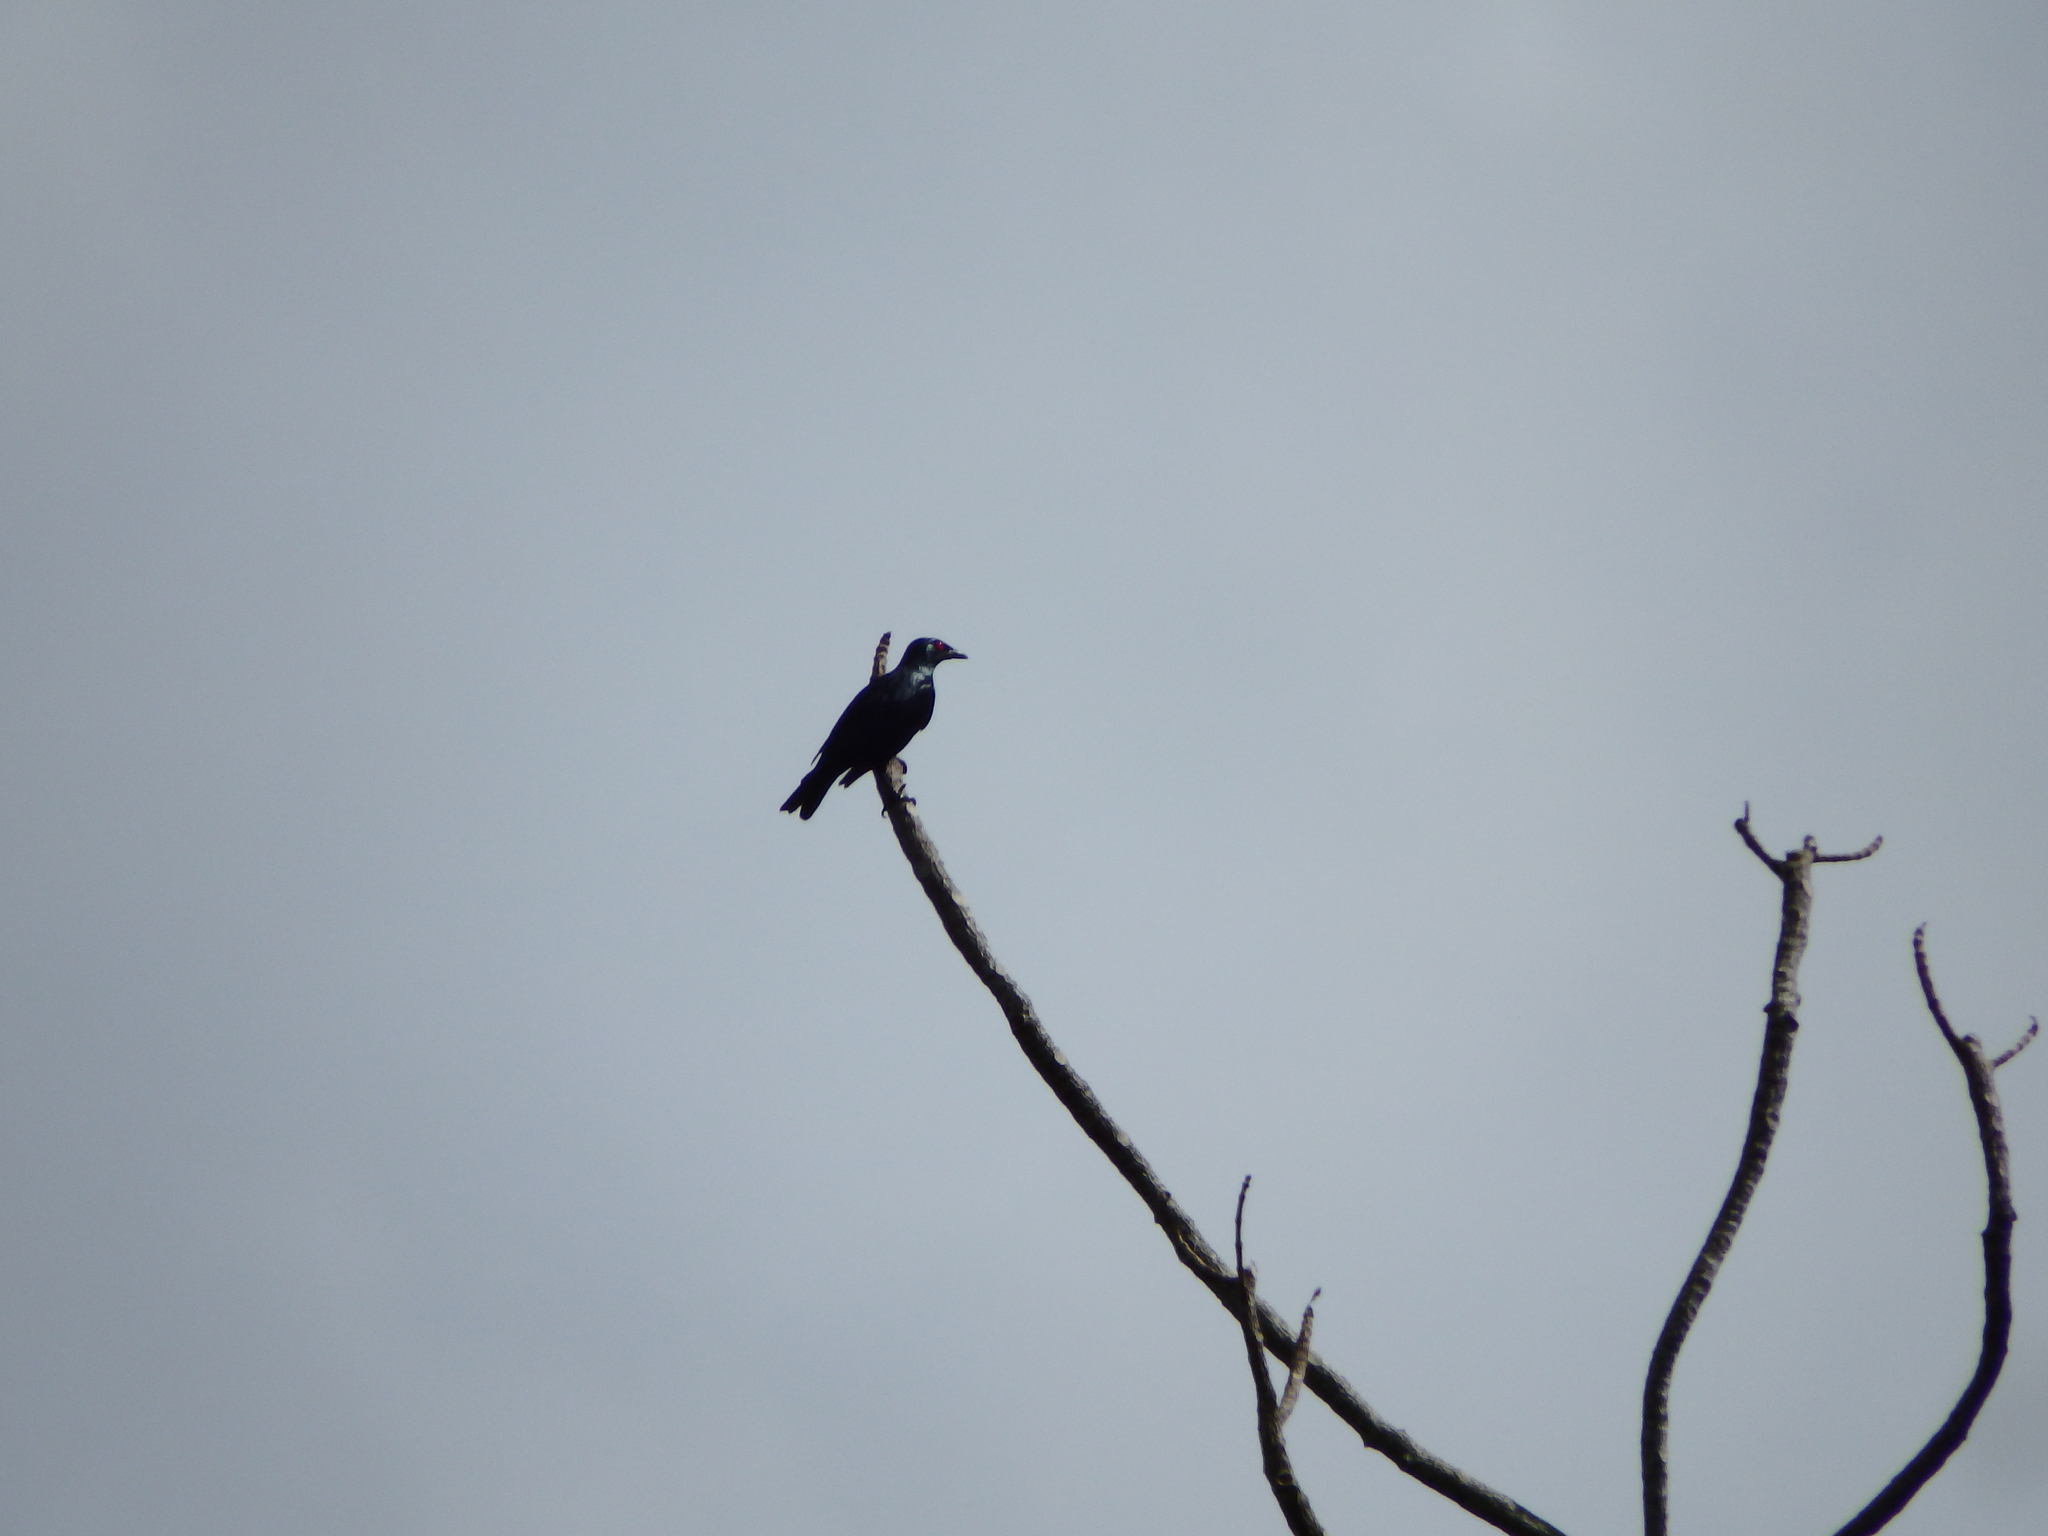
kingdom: Animalia
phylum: Chordata
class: Aves
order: Passeriformes
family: Sturnidae
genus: Aplonis
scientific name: Aplonis panayensis
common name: Asian glossy starling
